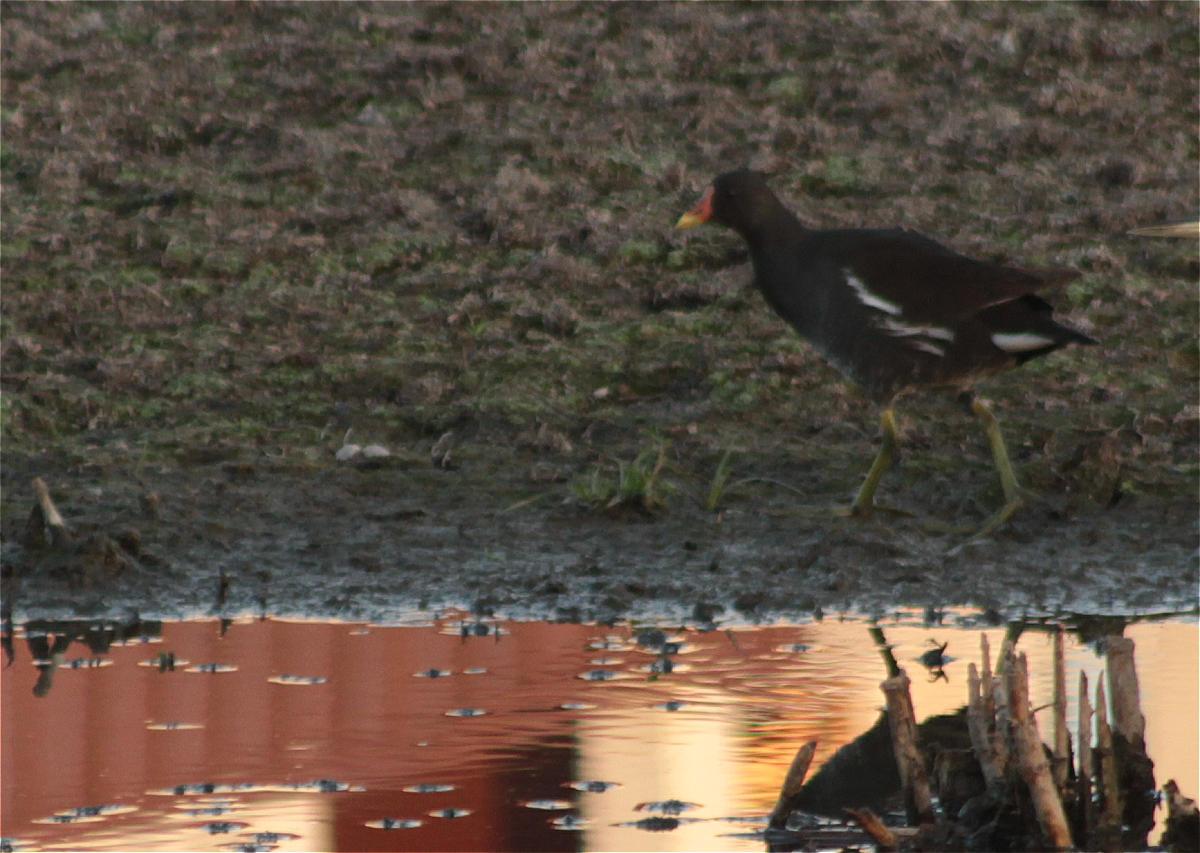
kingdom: Animalia
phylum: Chordata
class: Aves
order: Gruiformes
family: Rallidae
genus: Gallinula
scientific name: Gallinula chloropus
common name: Common moorhen
